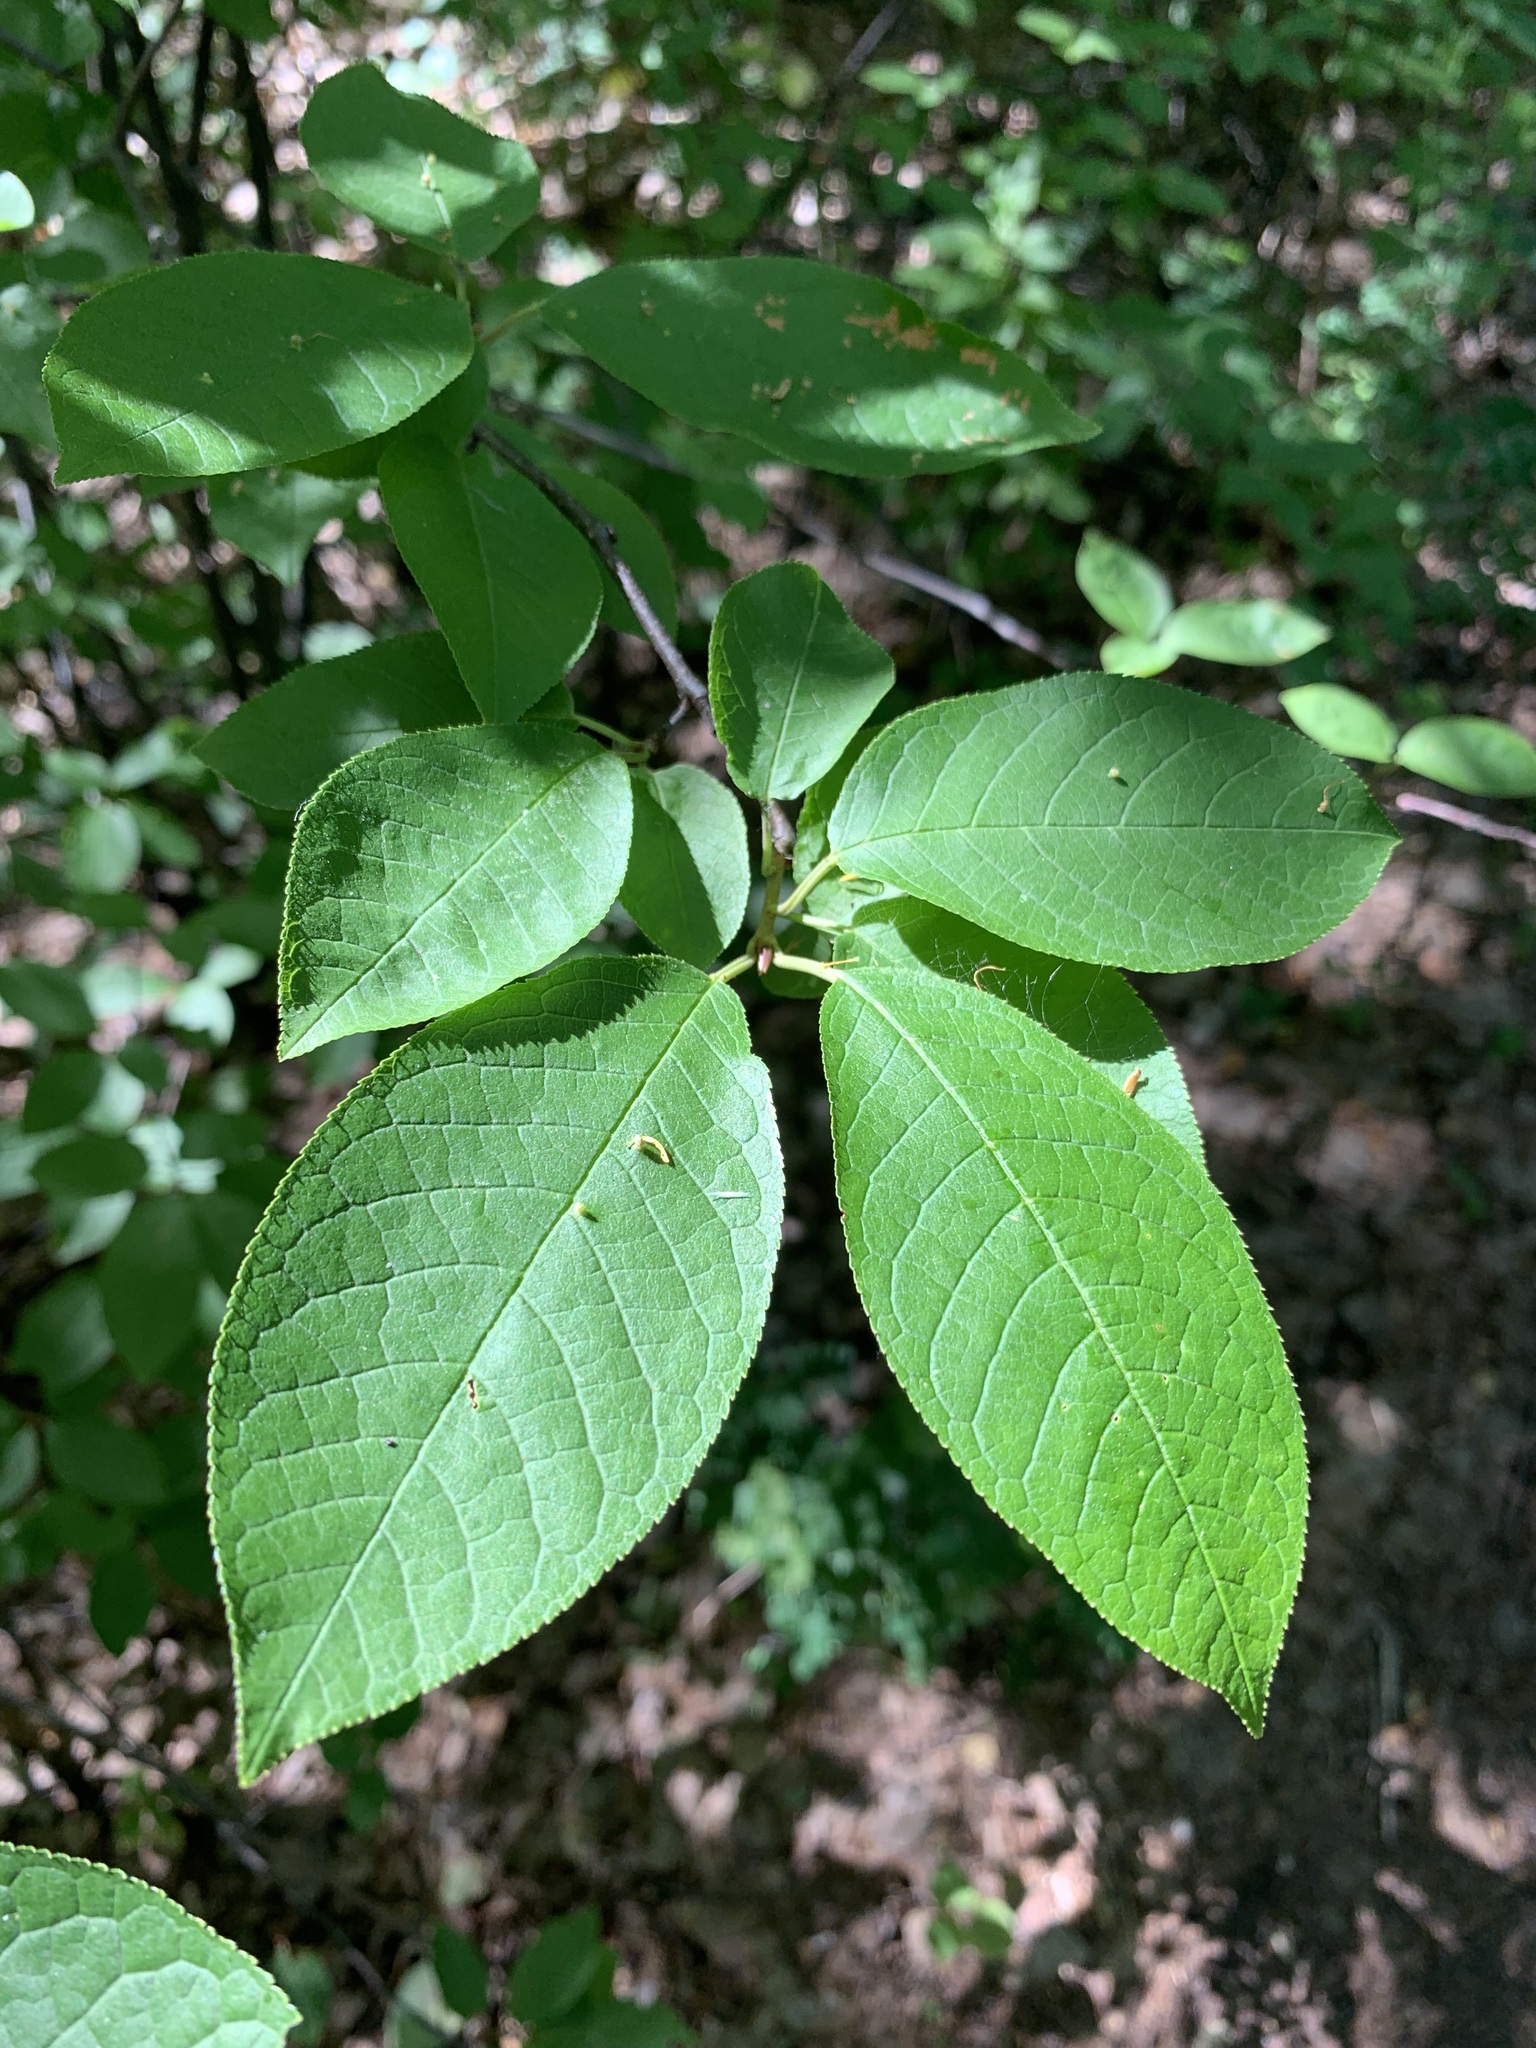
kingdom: Plantae
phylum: Tracheophyta
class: Magnoliopsida
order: Rosales
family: Rosaceae
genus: Prunus
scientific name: Prunus padus
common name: Bird cherry
